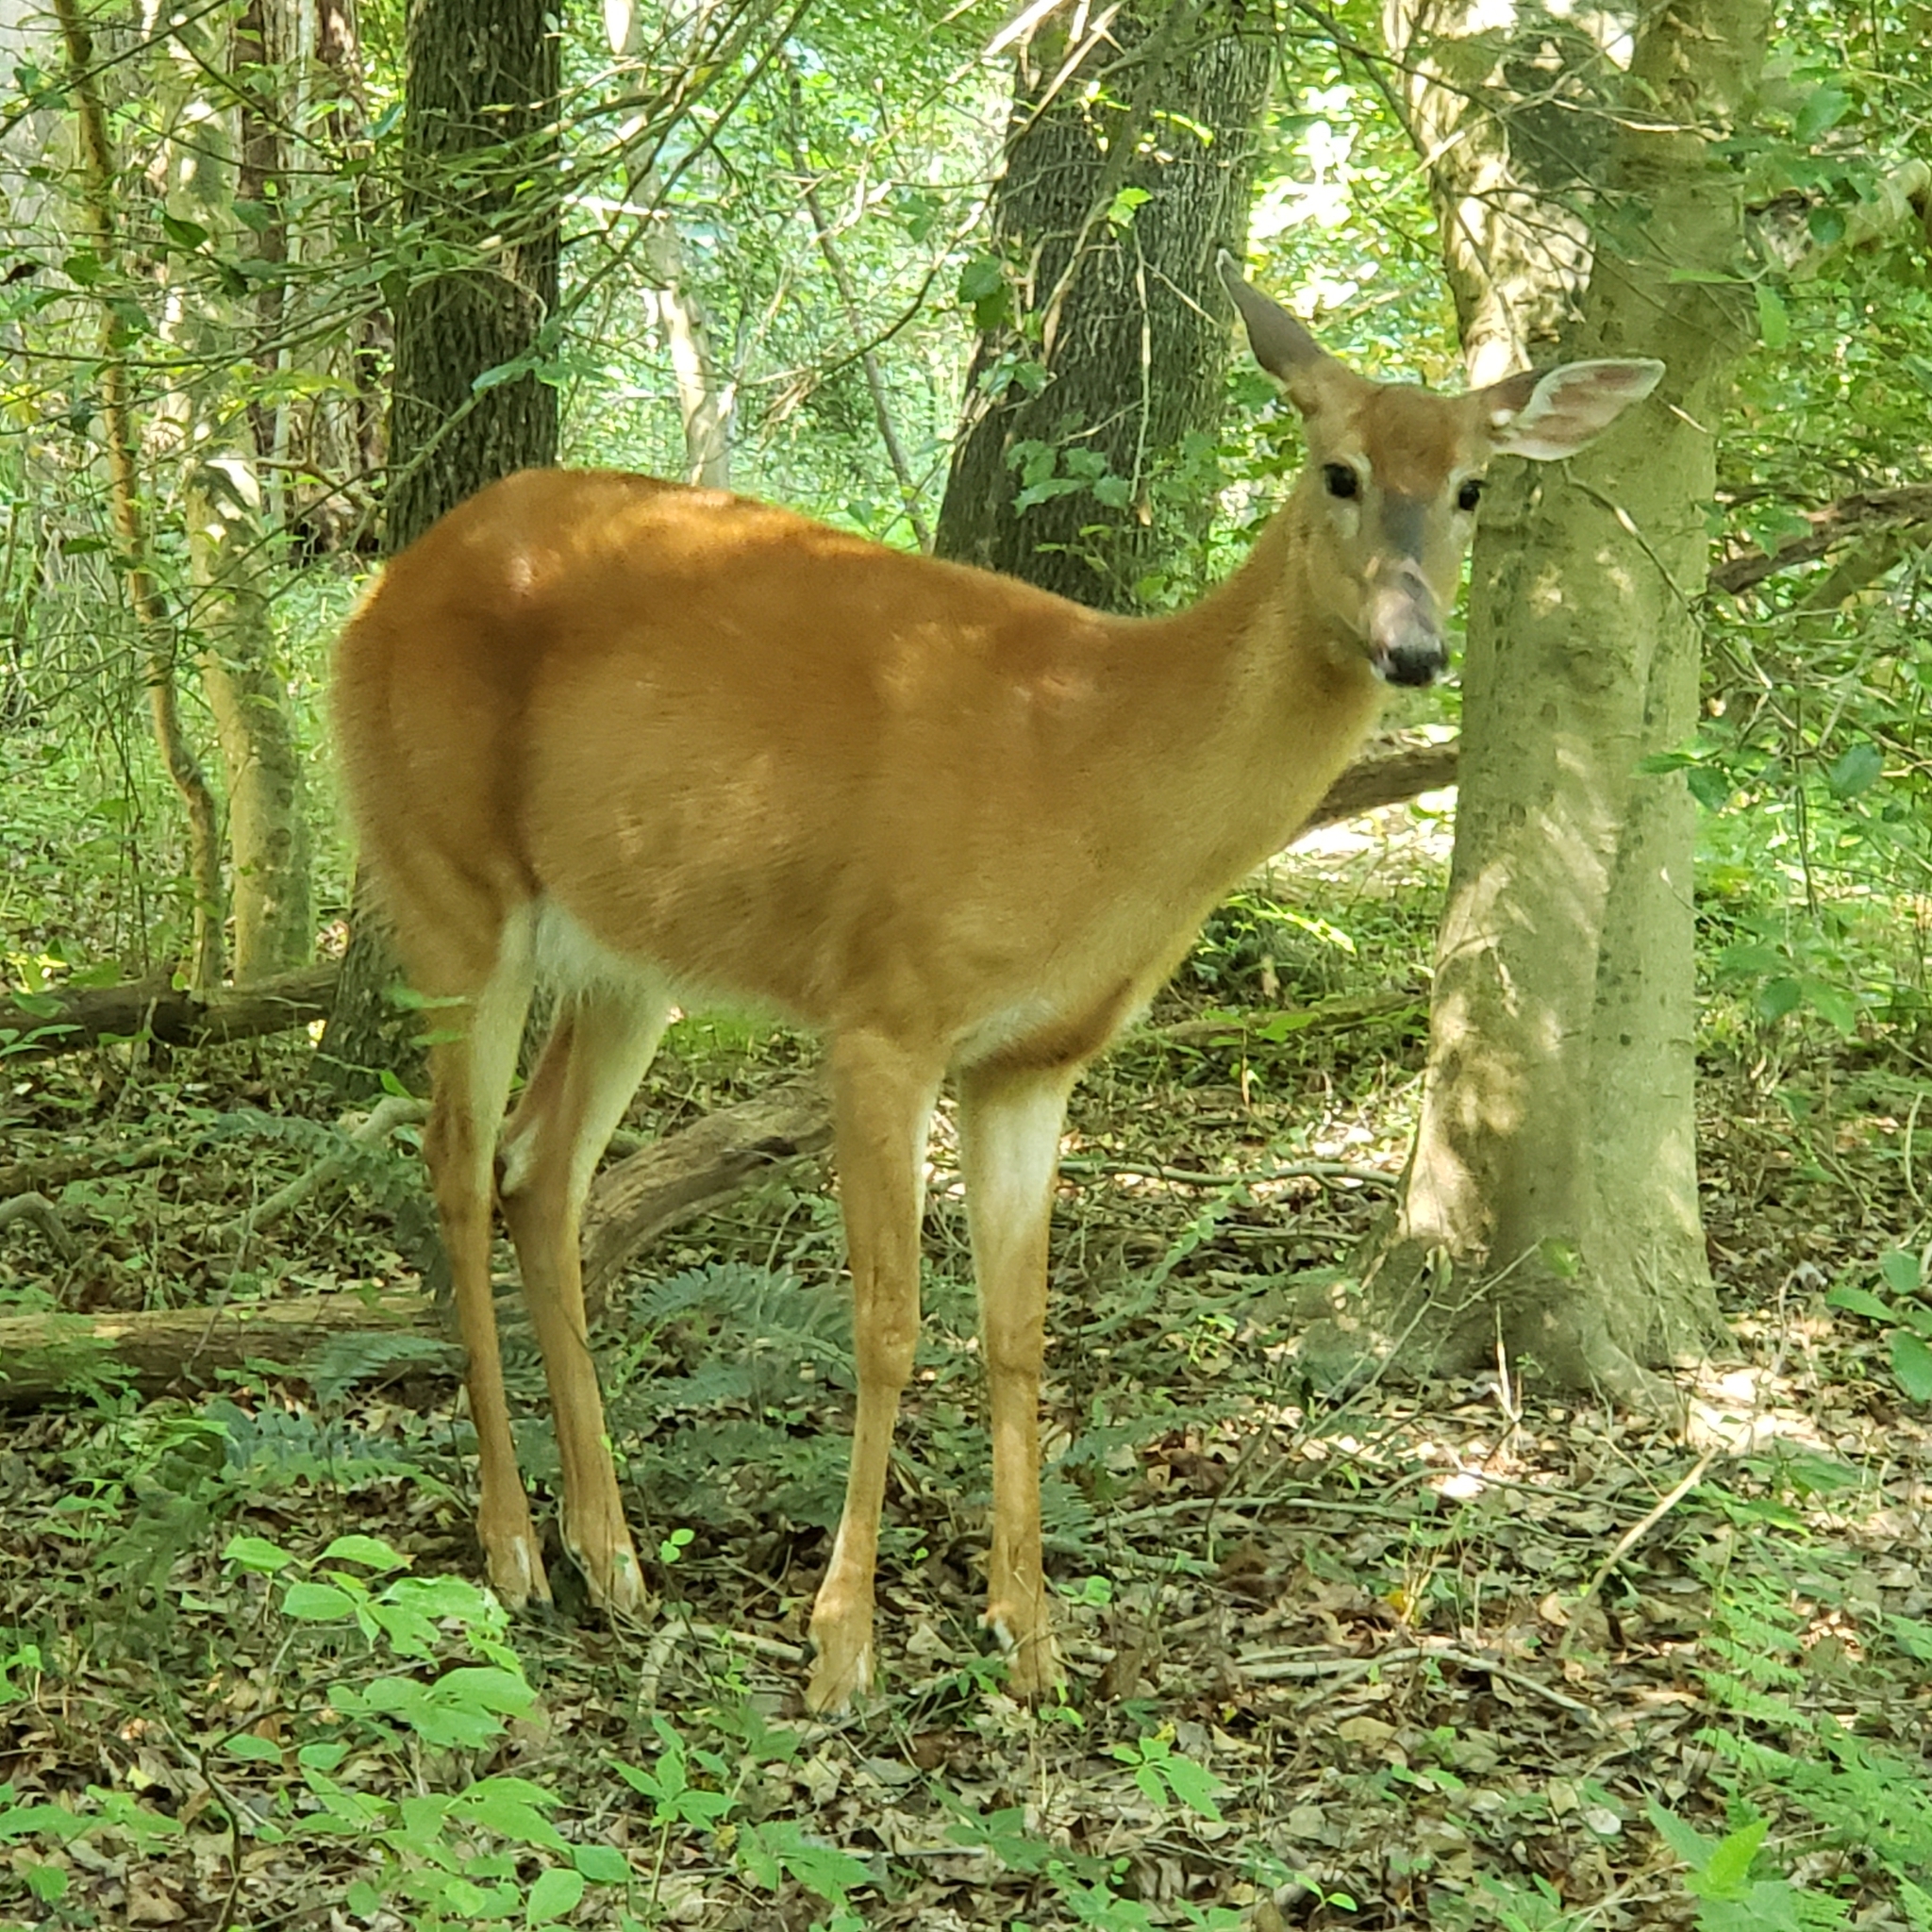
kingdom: Animalia
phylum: Chordata
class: Mammalia
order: Artiodactyla
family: Cervidae
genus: Odocoileus
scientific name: Odocoileus virginianus
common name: White-tailed deer
